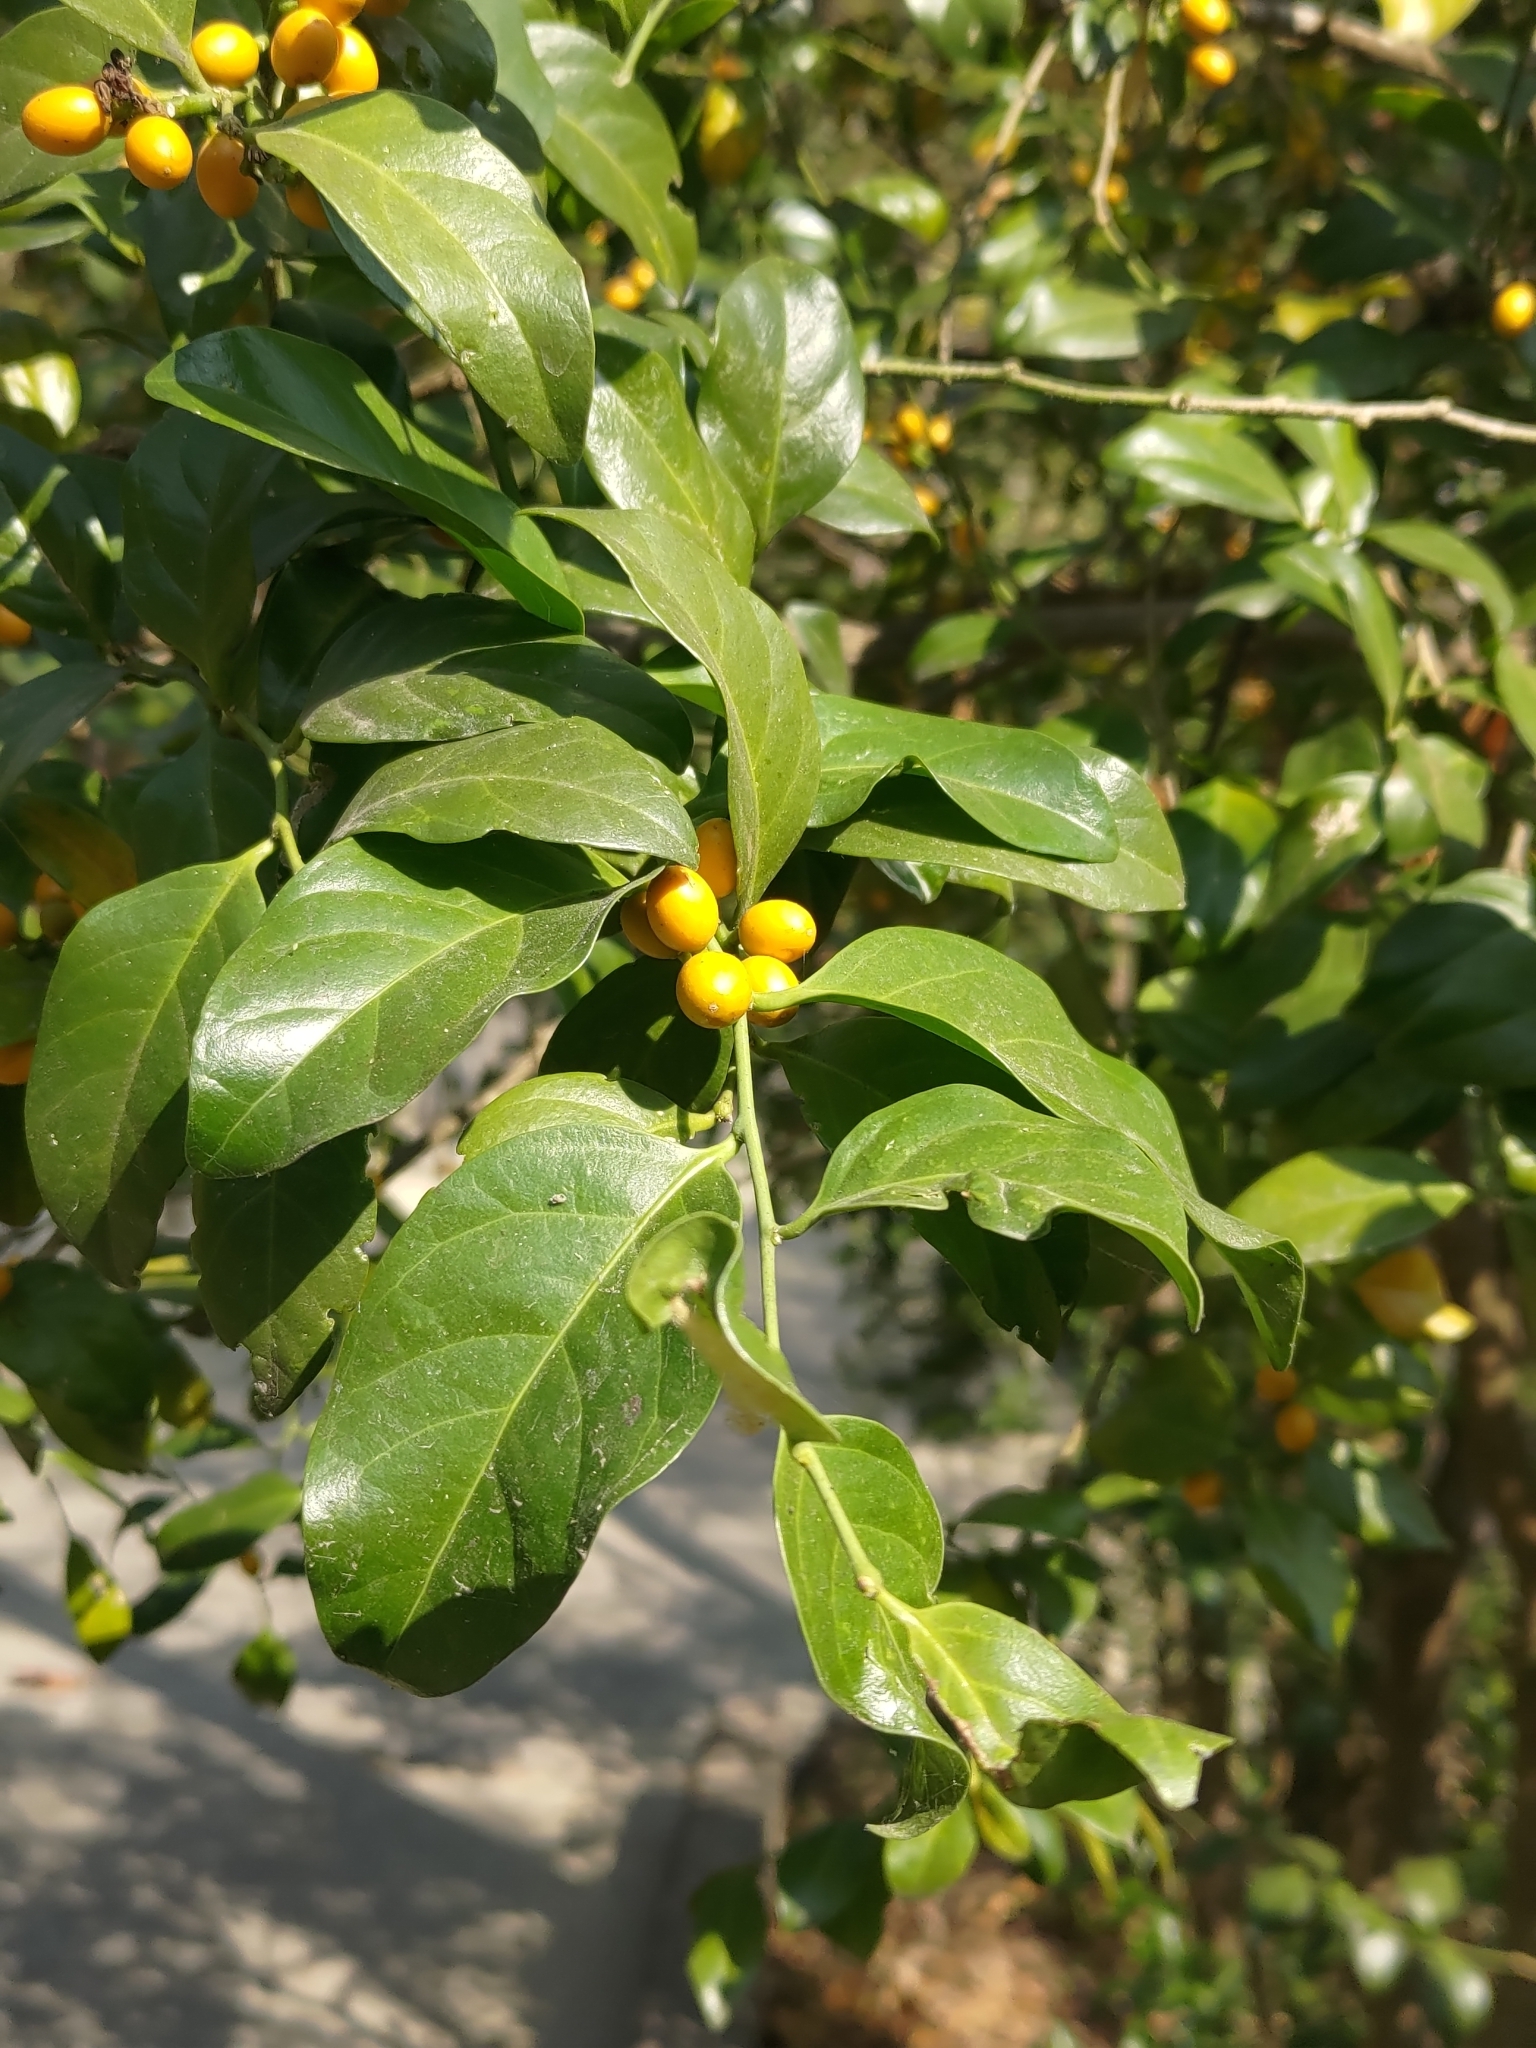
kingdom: Plantae
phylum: Tracheophyta
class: Magnoliopsida
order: Santalales
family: Opiliaceae
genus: Champereia
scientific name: Champereia manillana
